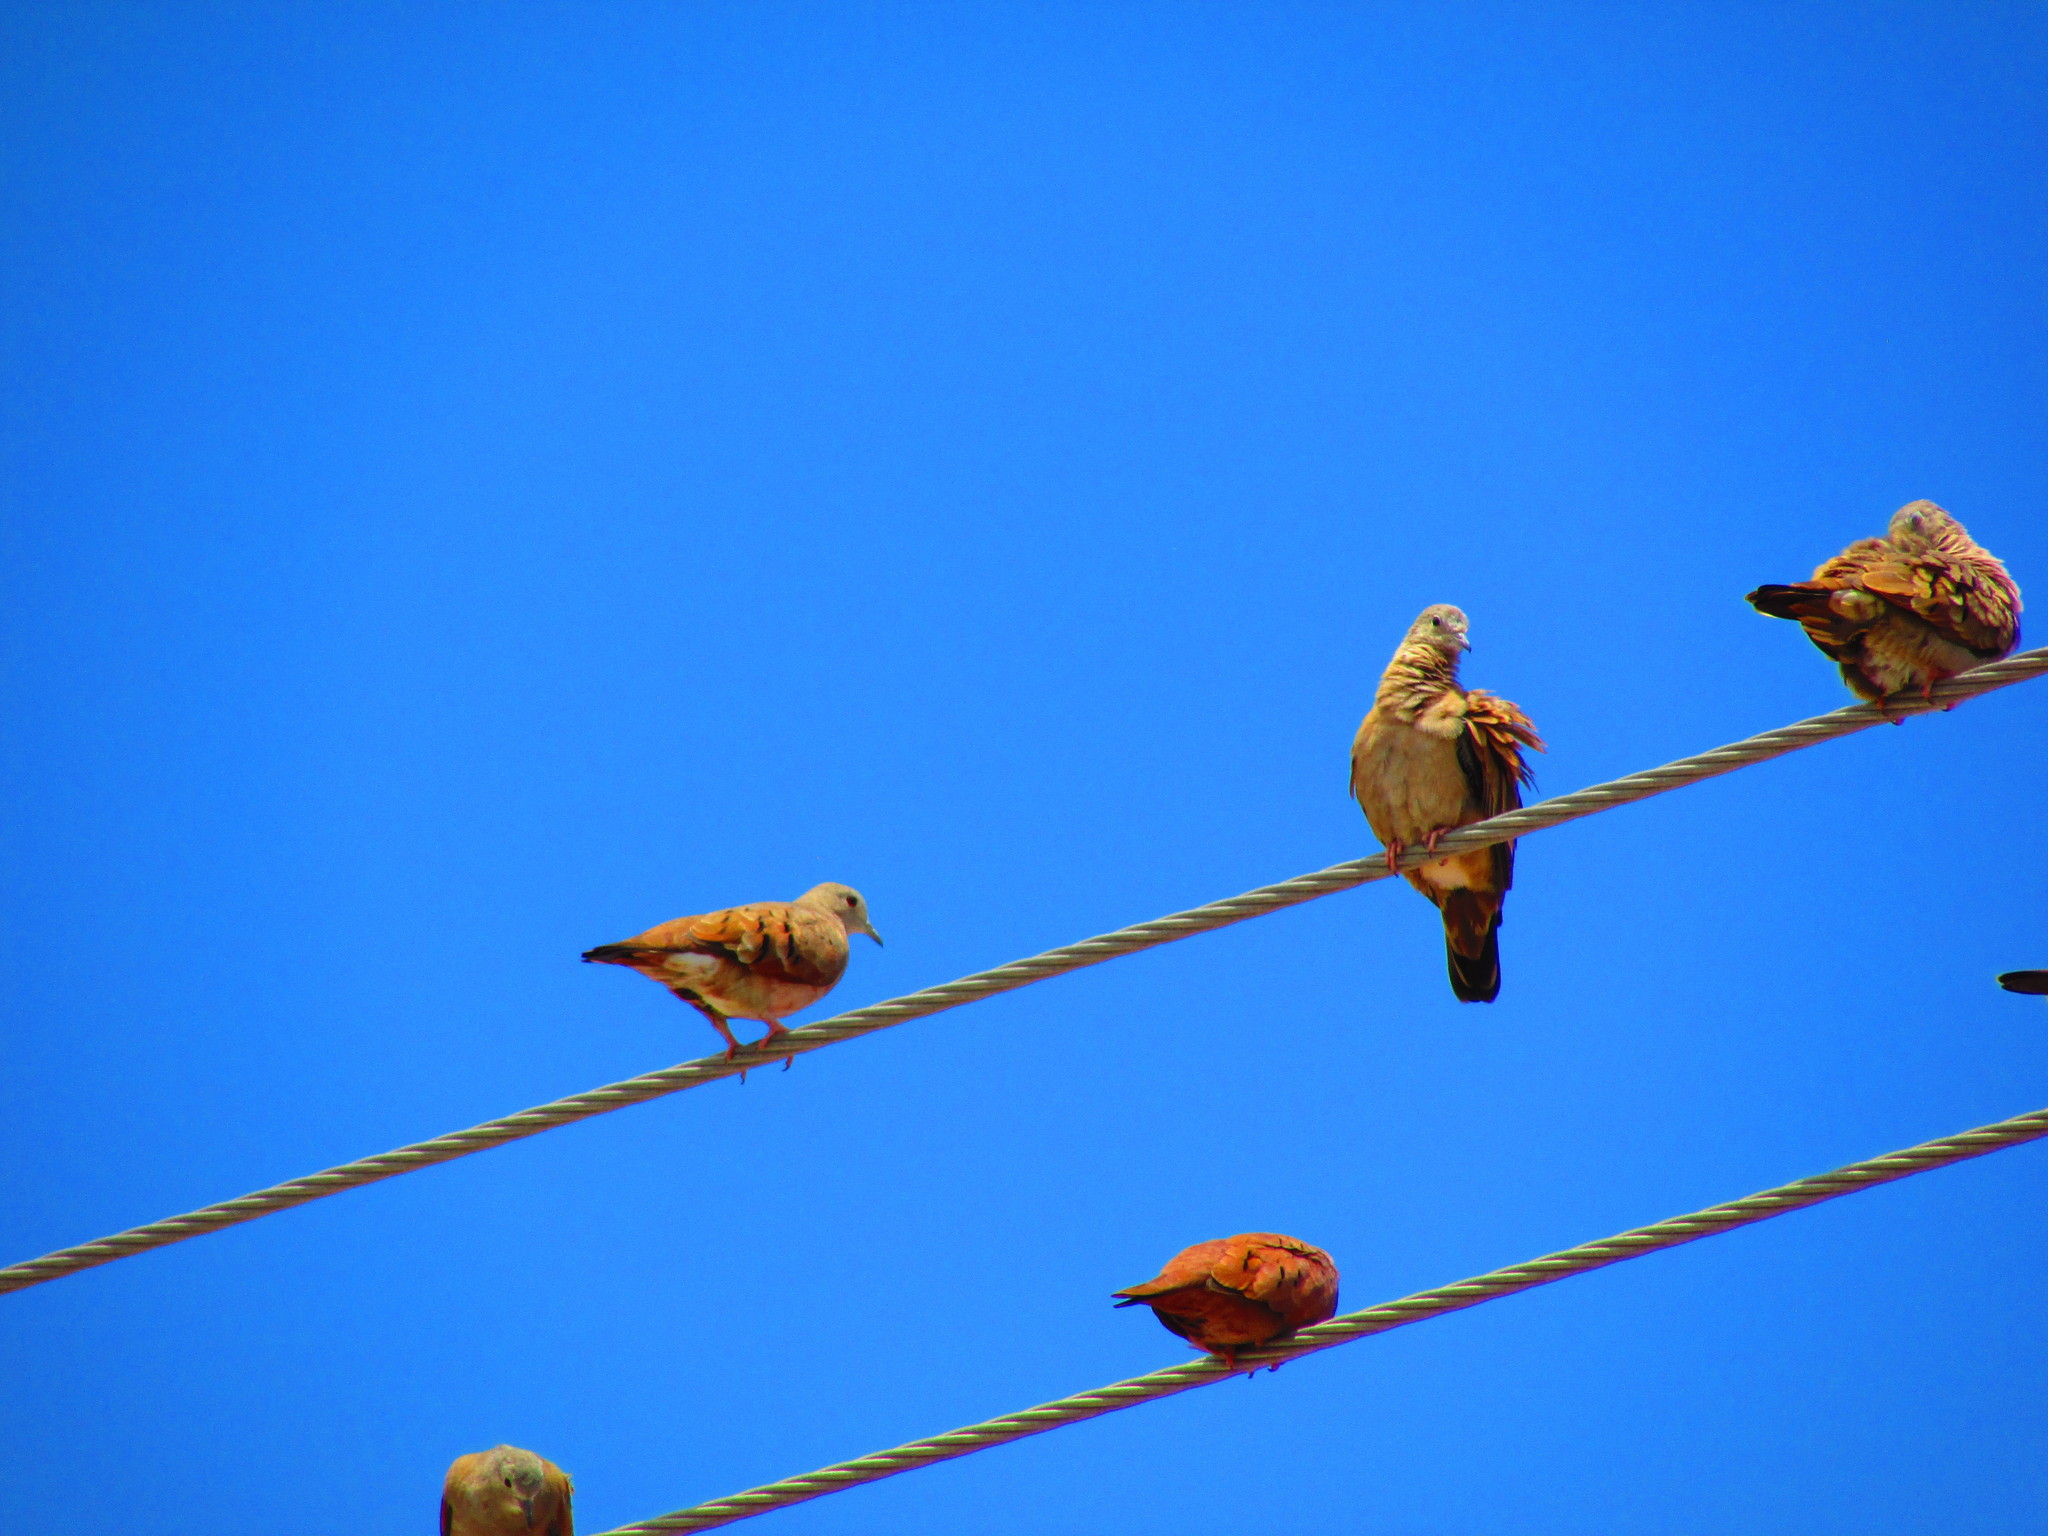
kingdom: Animalia
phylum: Chordata
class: Aves
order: Columbiformes
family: Columbidae
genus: Columbina
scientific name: Columbina talpacoti
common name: Ruddy ground dove
